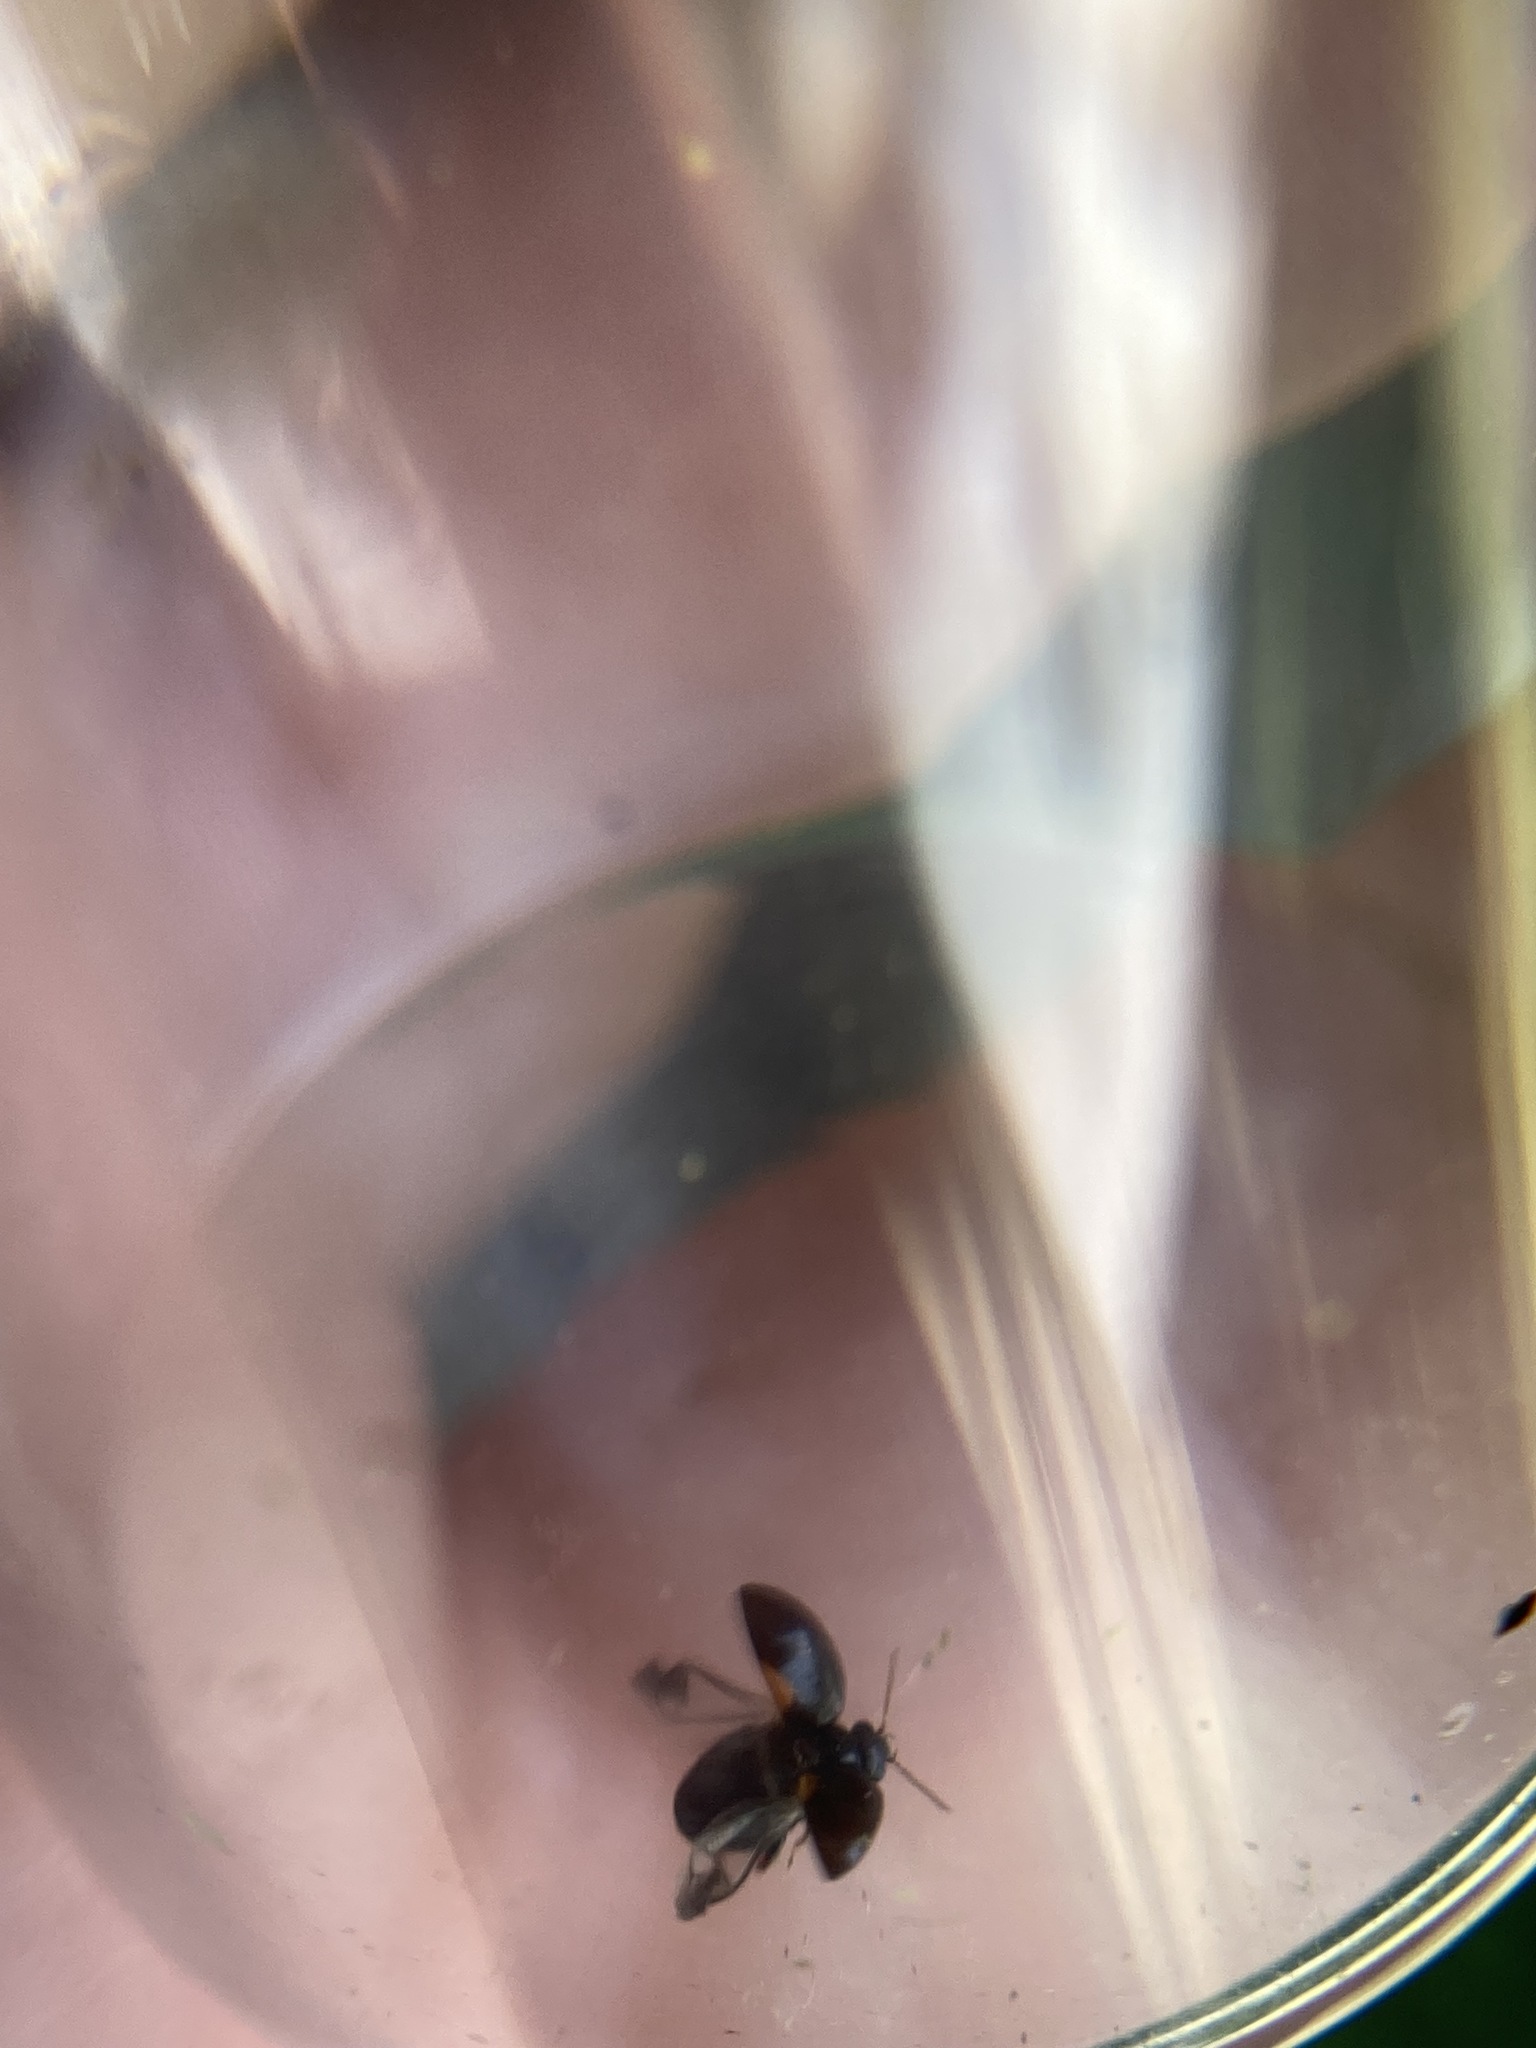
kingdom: Animalia
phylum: Arthropoda
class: Insecta
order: Coleoptera
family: Scirtidae
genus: Scirtes
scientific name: Scirtes orbiculatus
